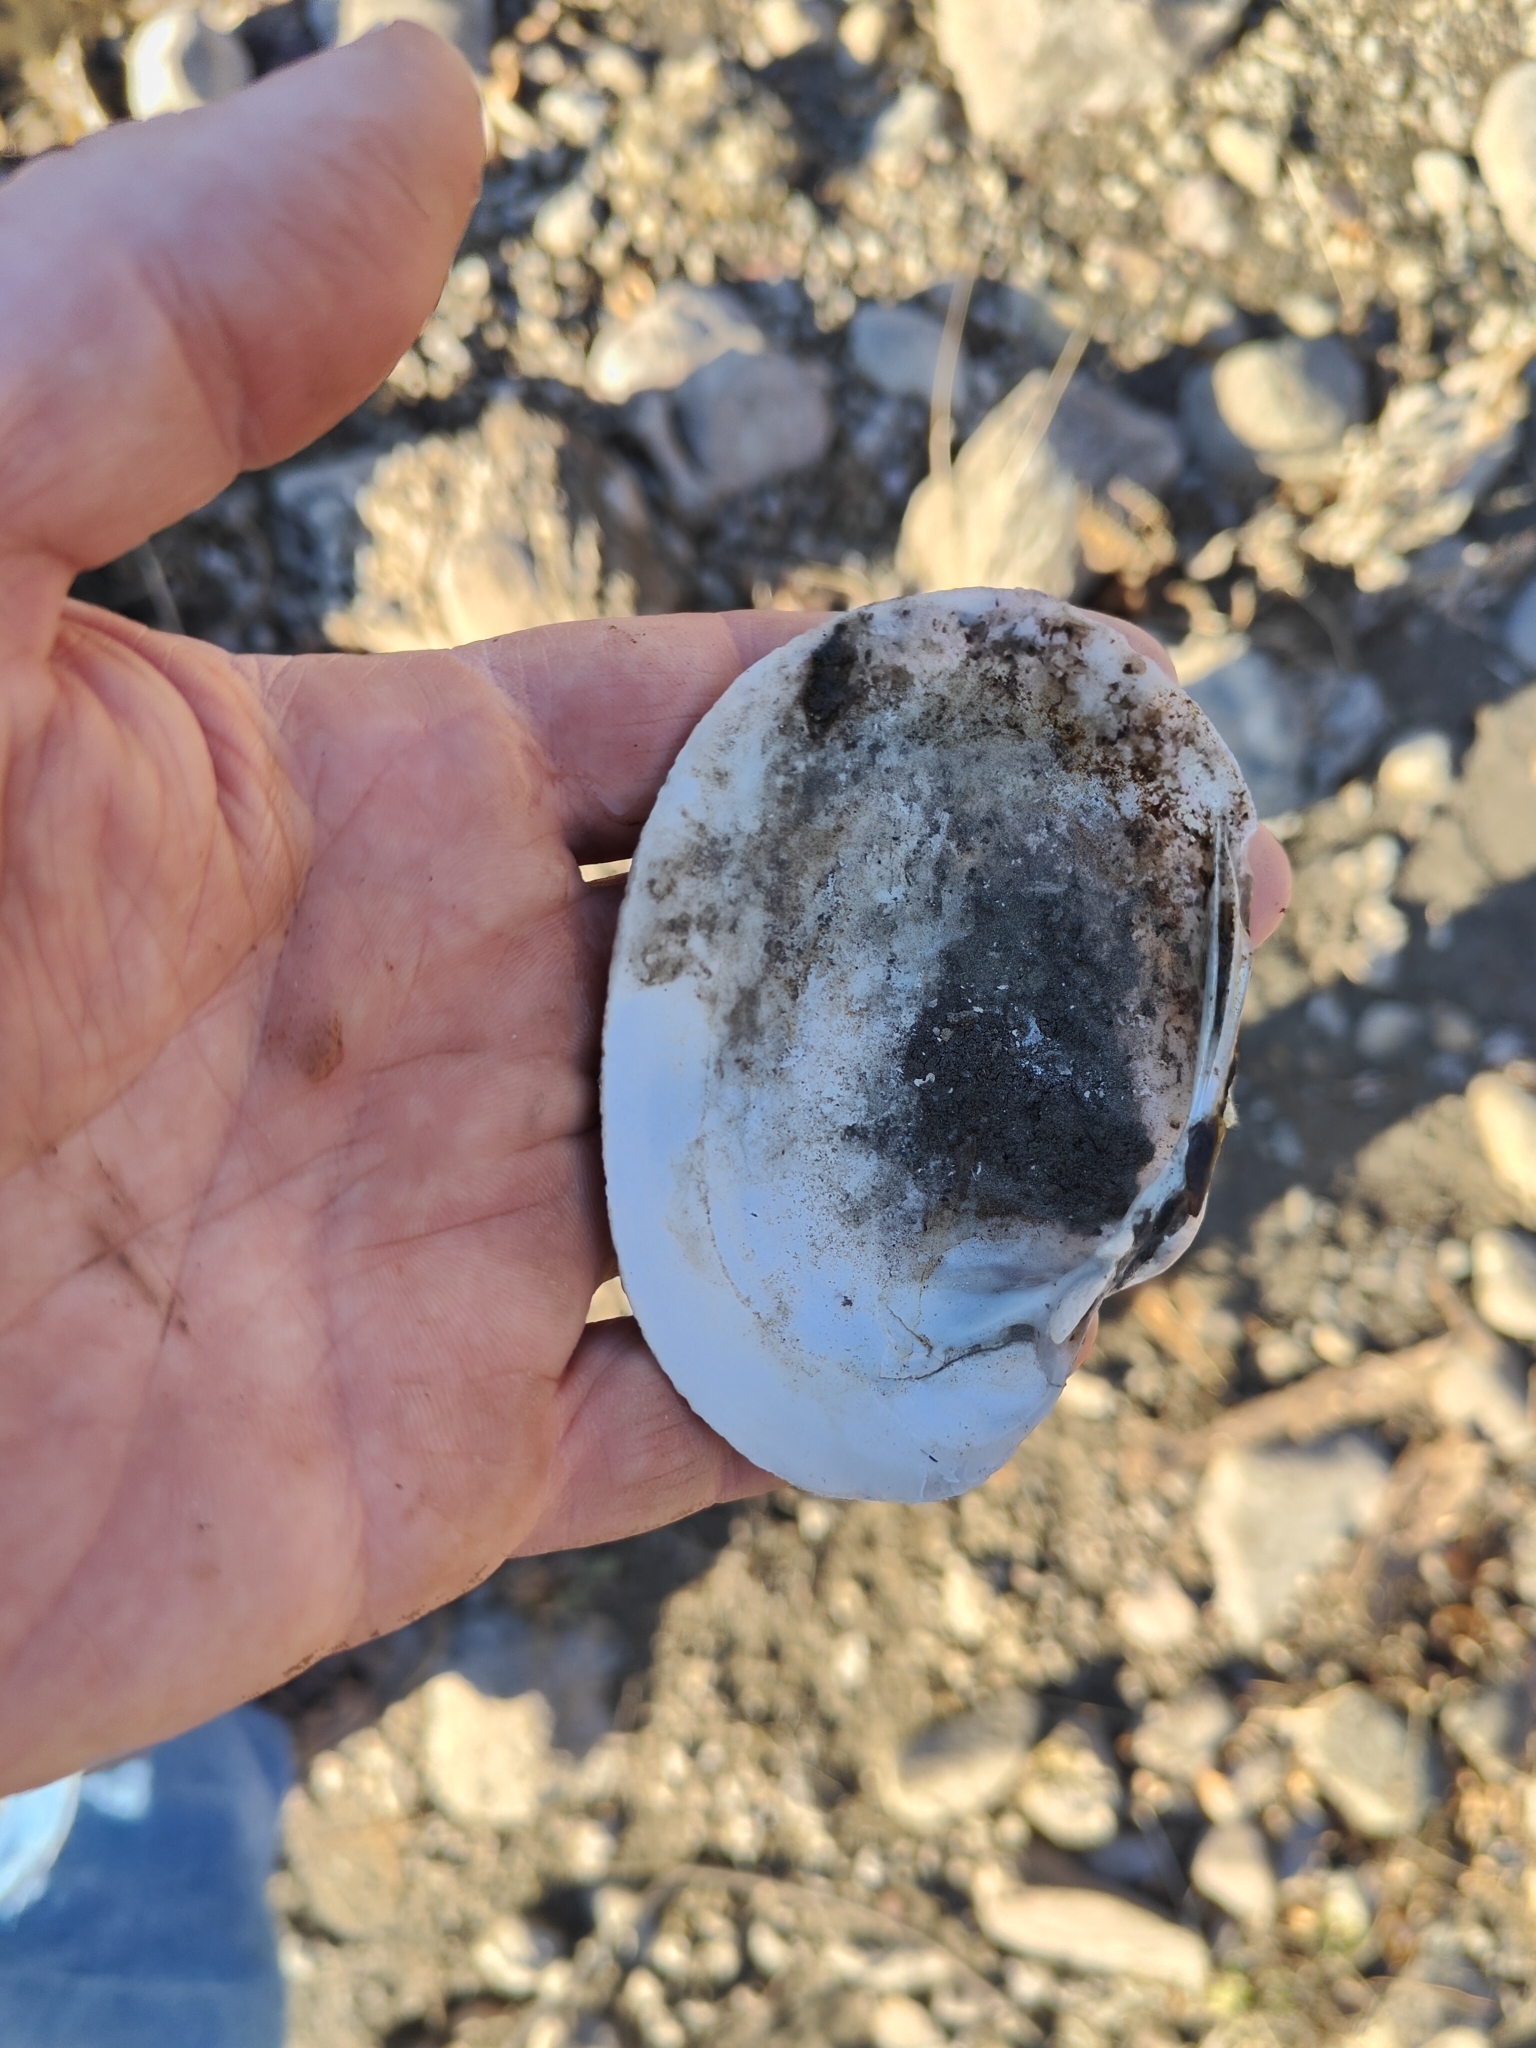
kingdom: Animalia
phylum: Mollusca
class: Bivalvia
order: Unionida
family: Unionidae
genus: Lampsilis
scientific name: Lampsilis cardium
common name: Plain pocketbook
